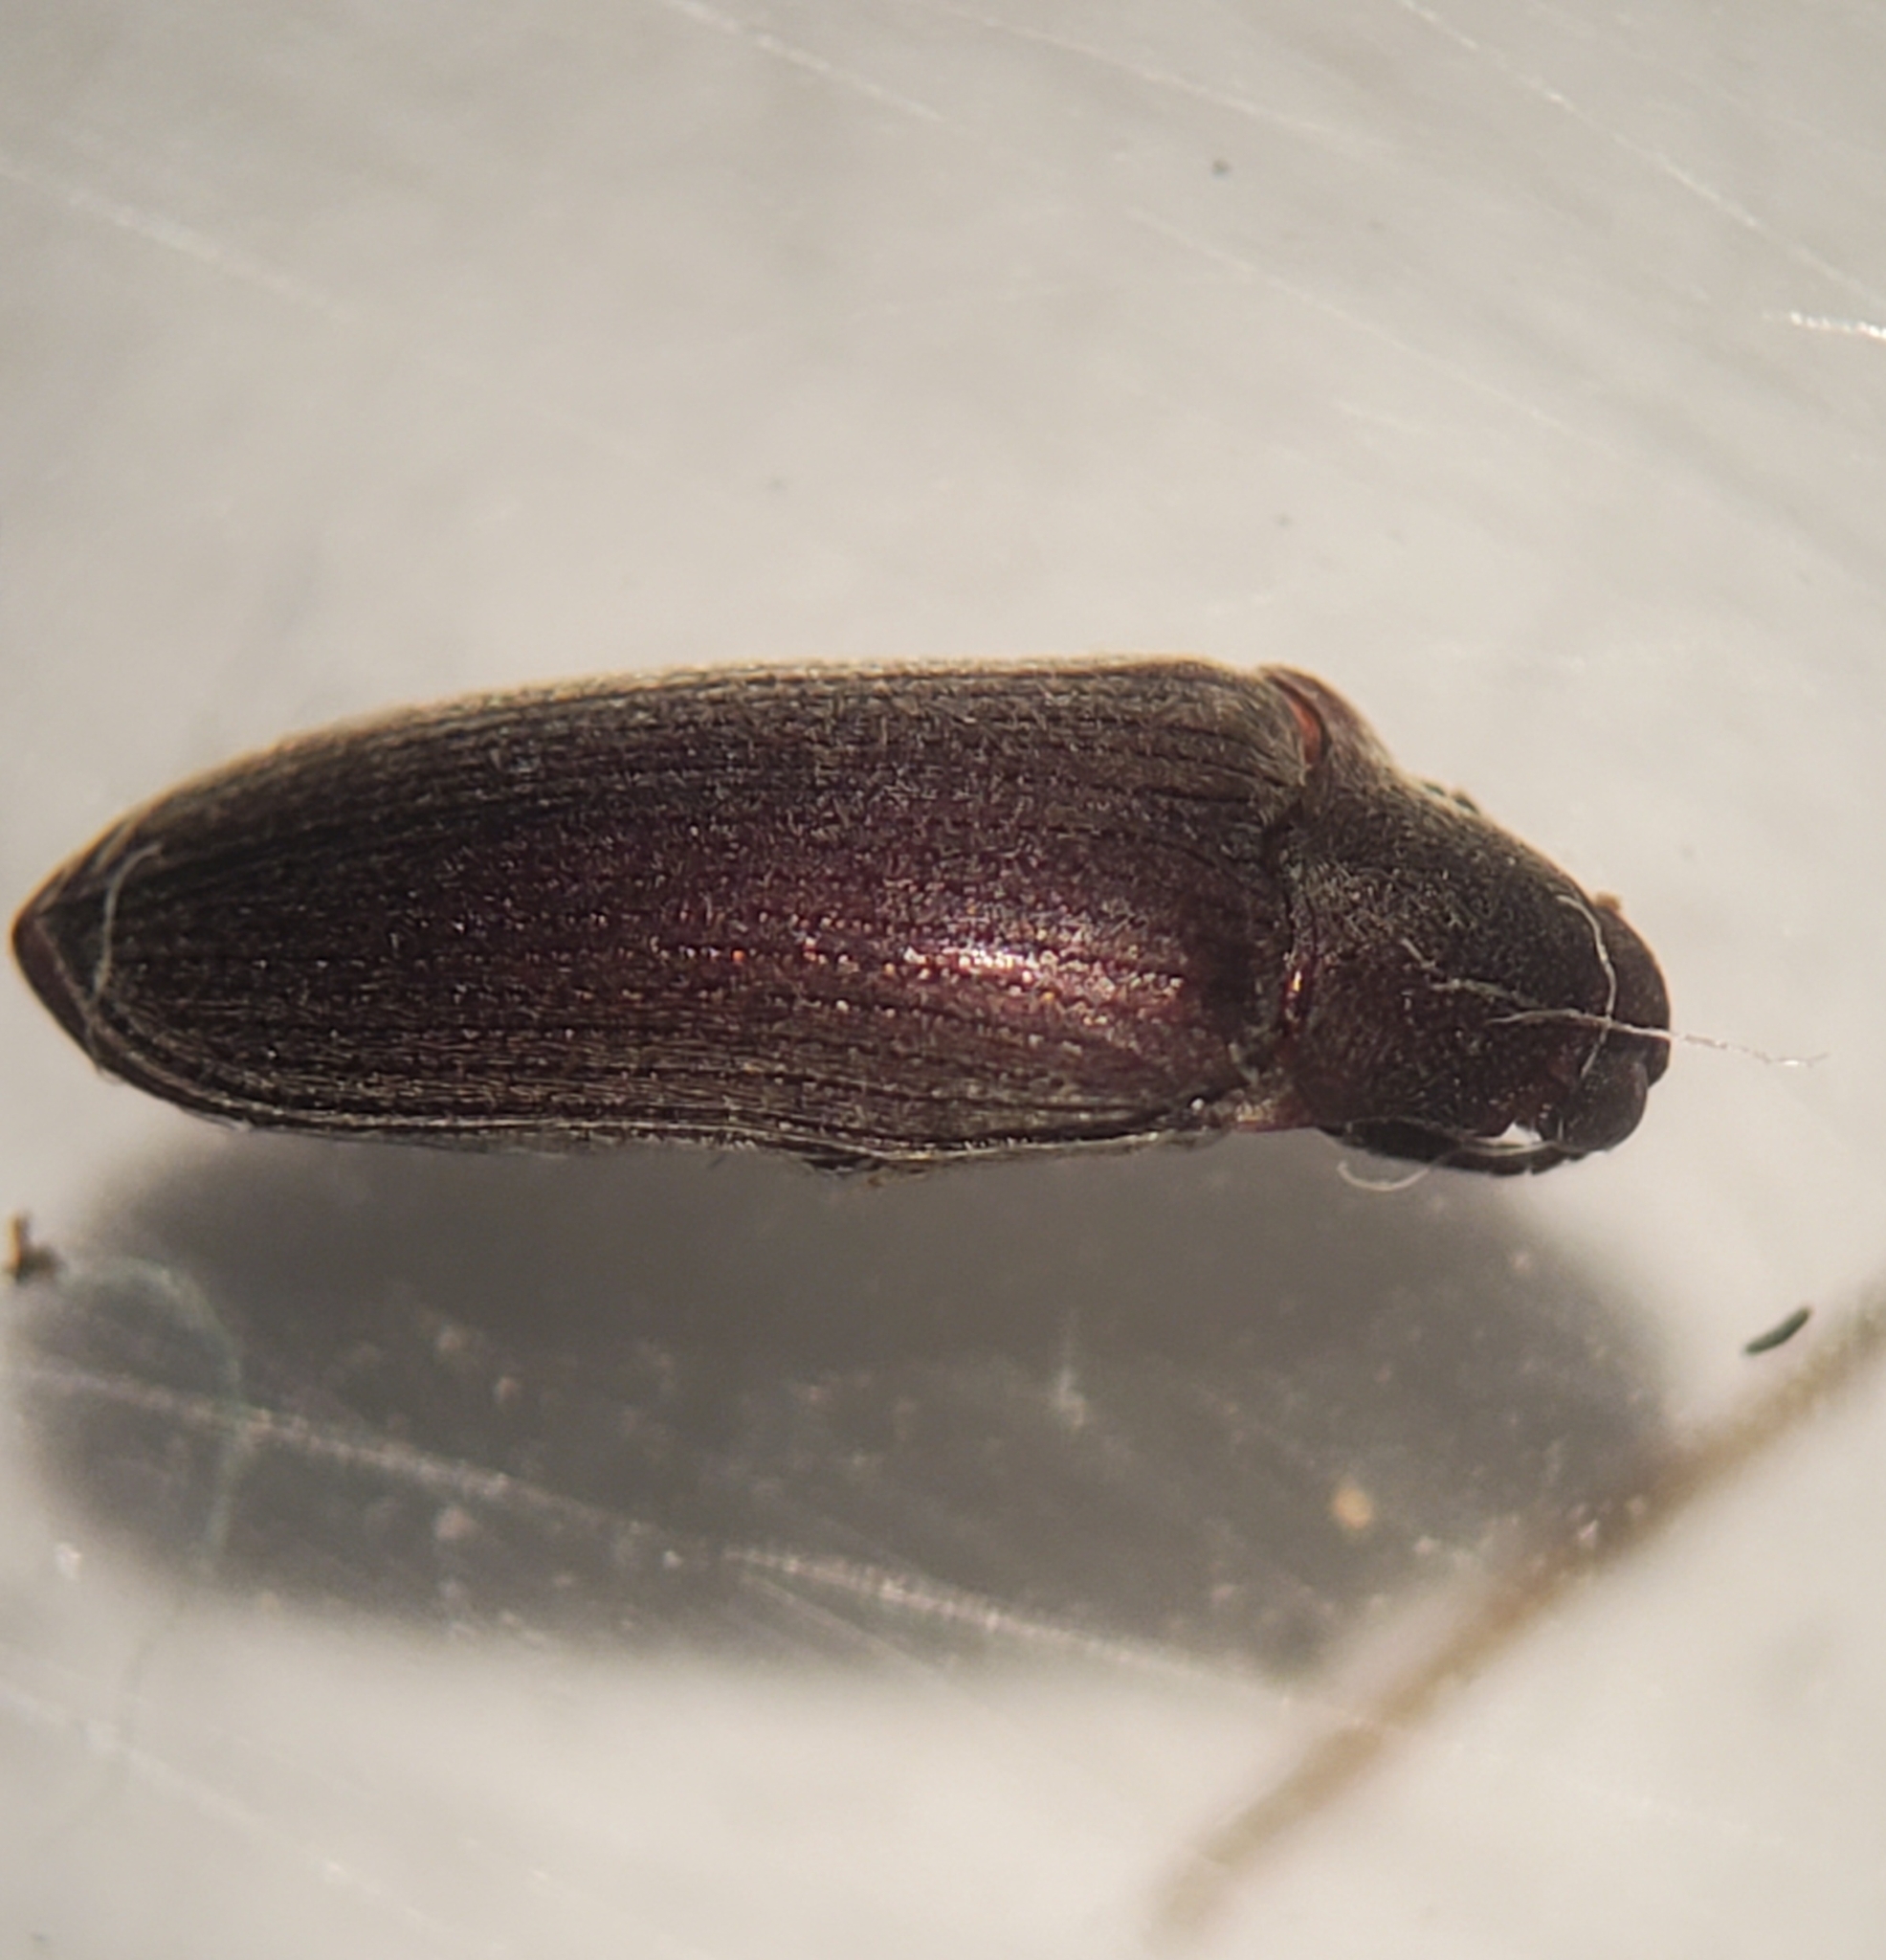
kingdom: Animalia
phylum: Arthropoda
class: Insecta
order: Coleoptera
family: Throscidae
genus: Pactopus
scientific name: Pactopus hornii
